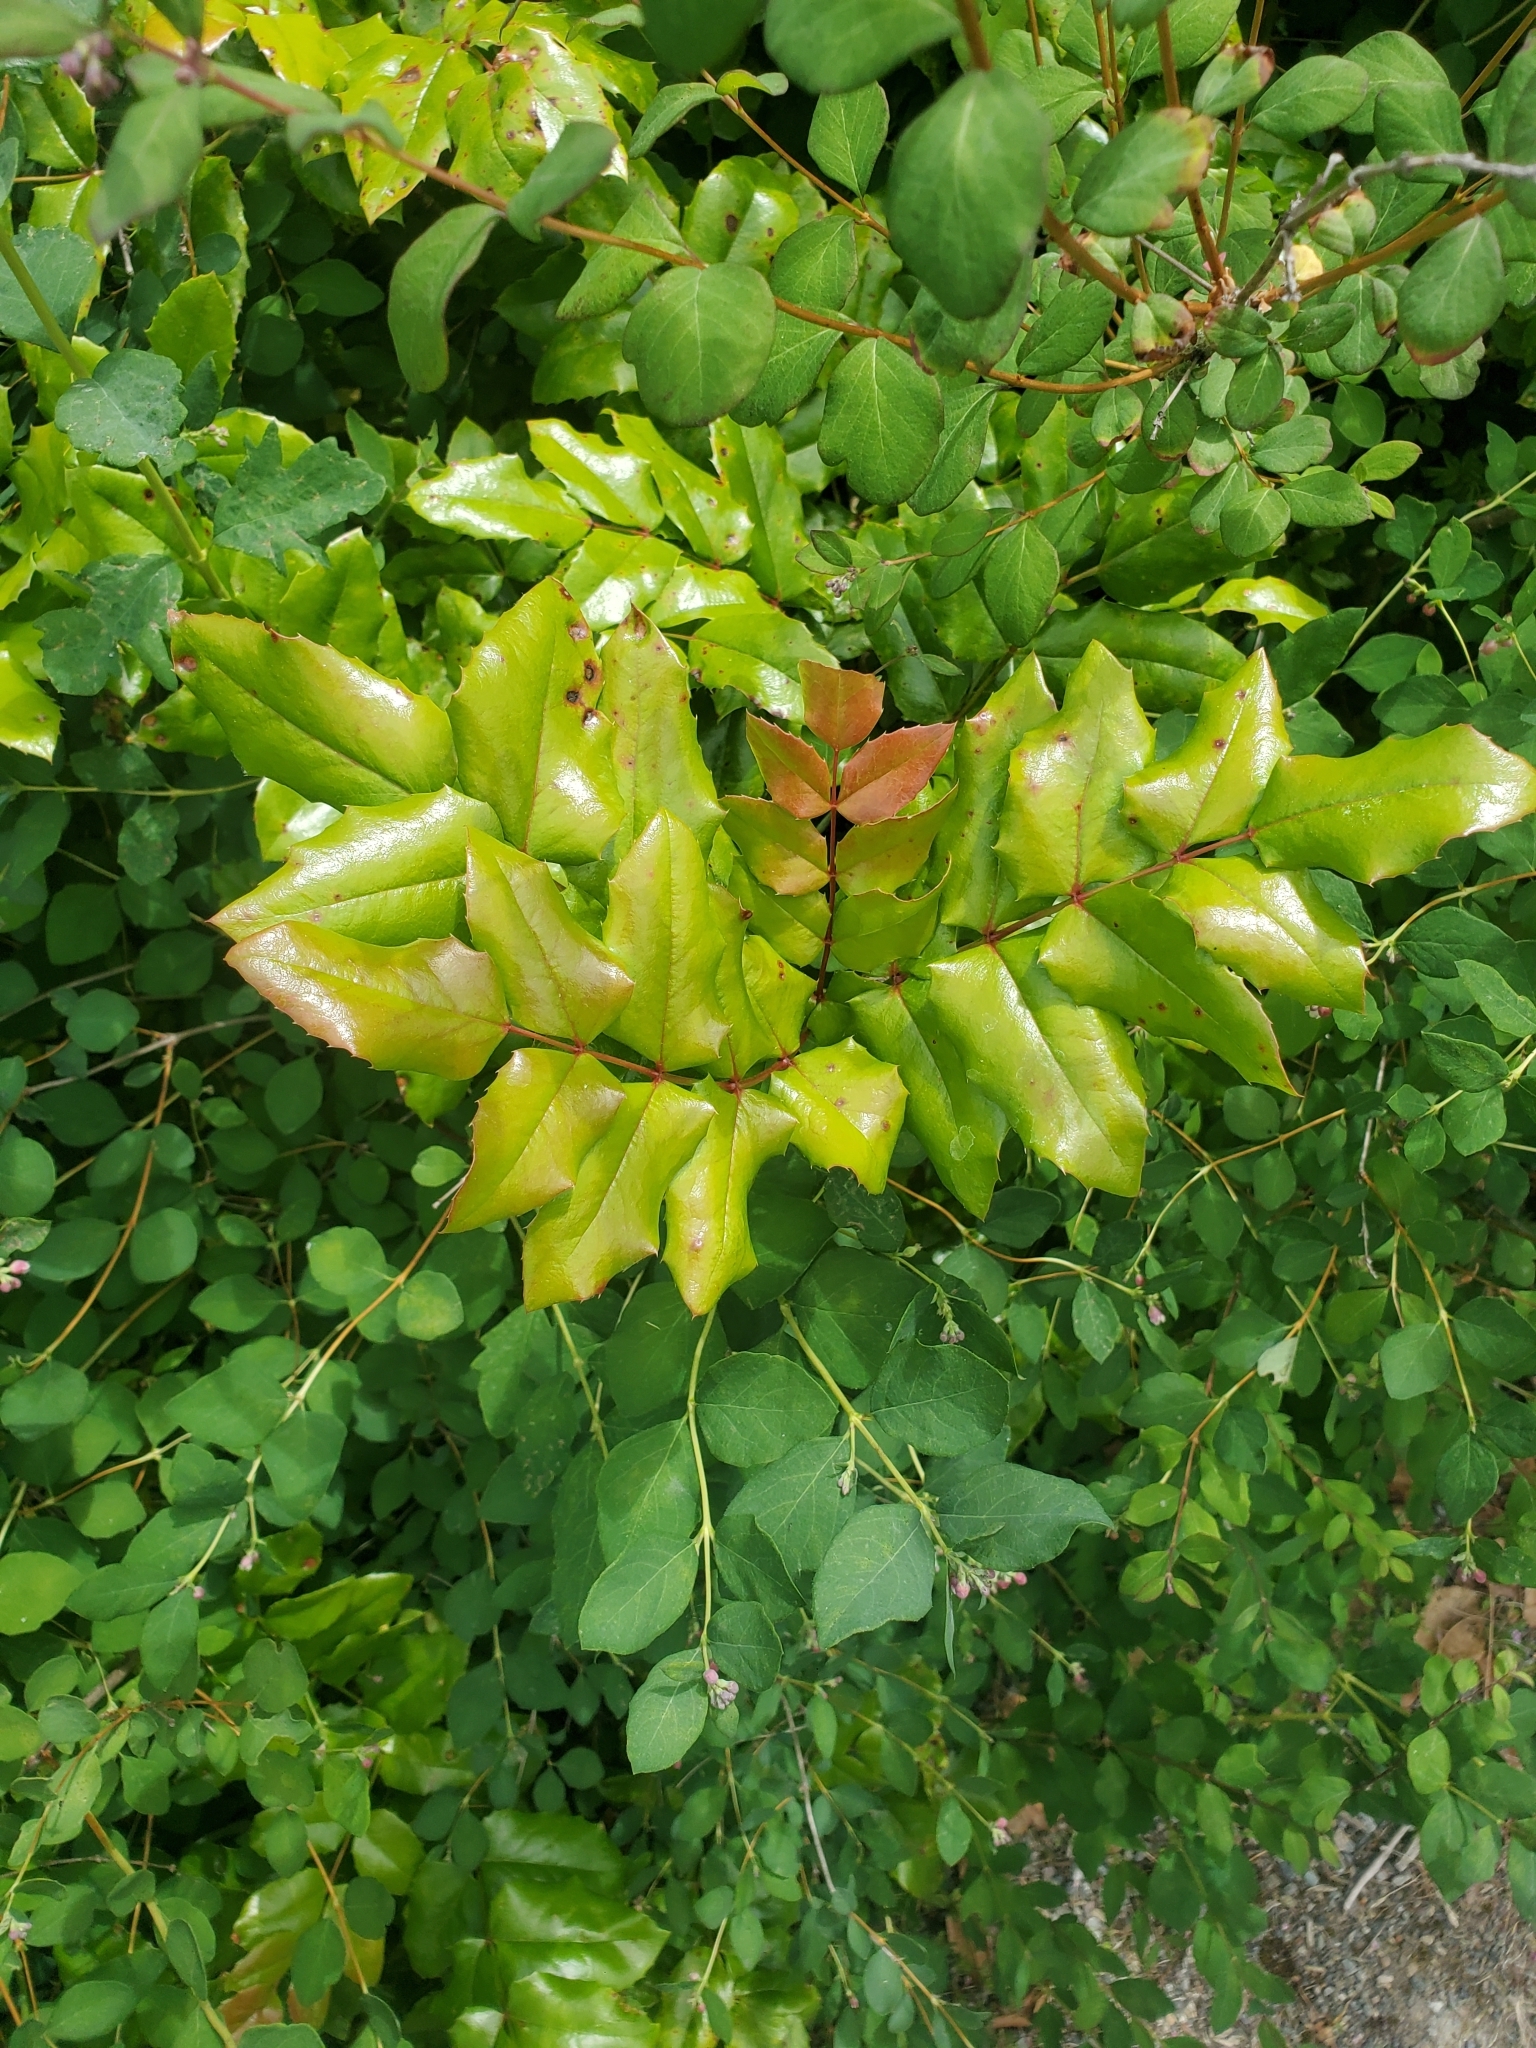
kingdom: Plantae
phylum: Tracheophyta
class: Magnoliopsida
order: Ranunculales
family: Berberidaceae
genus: Mahonia
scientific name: Mahonia aquifolium
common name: Oregon-grape
